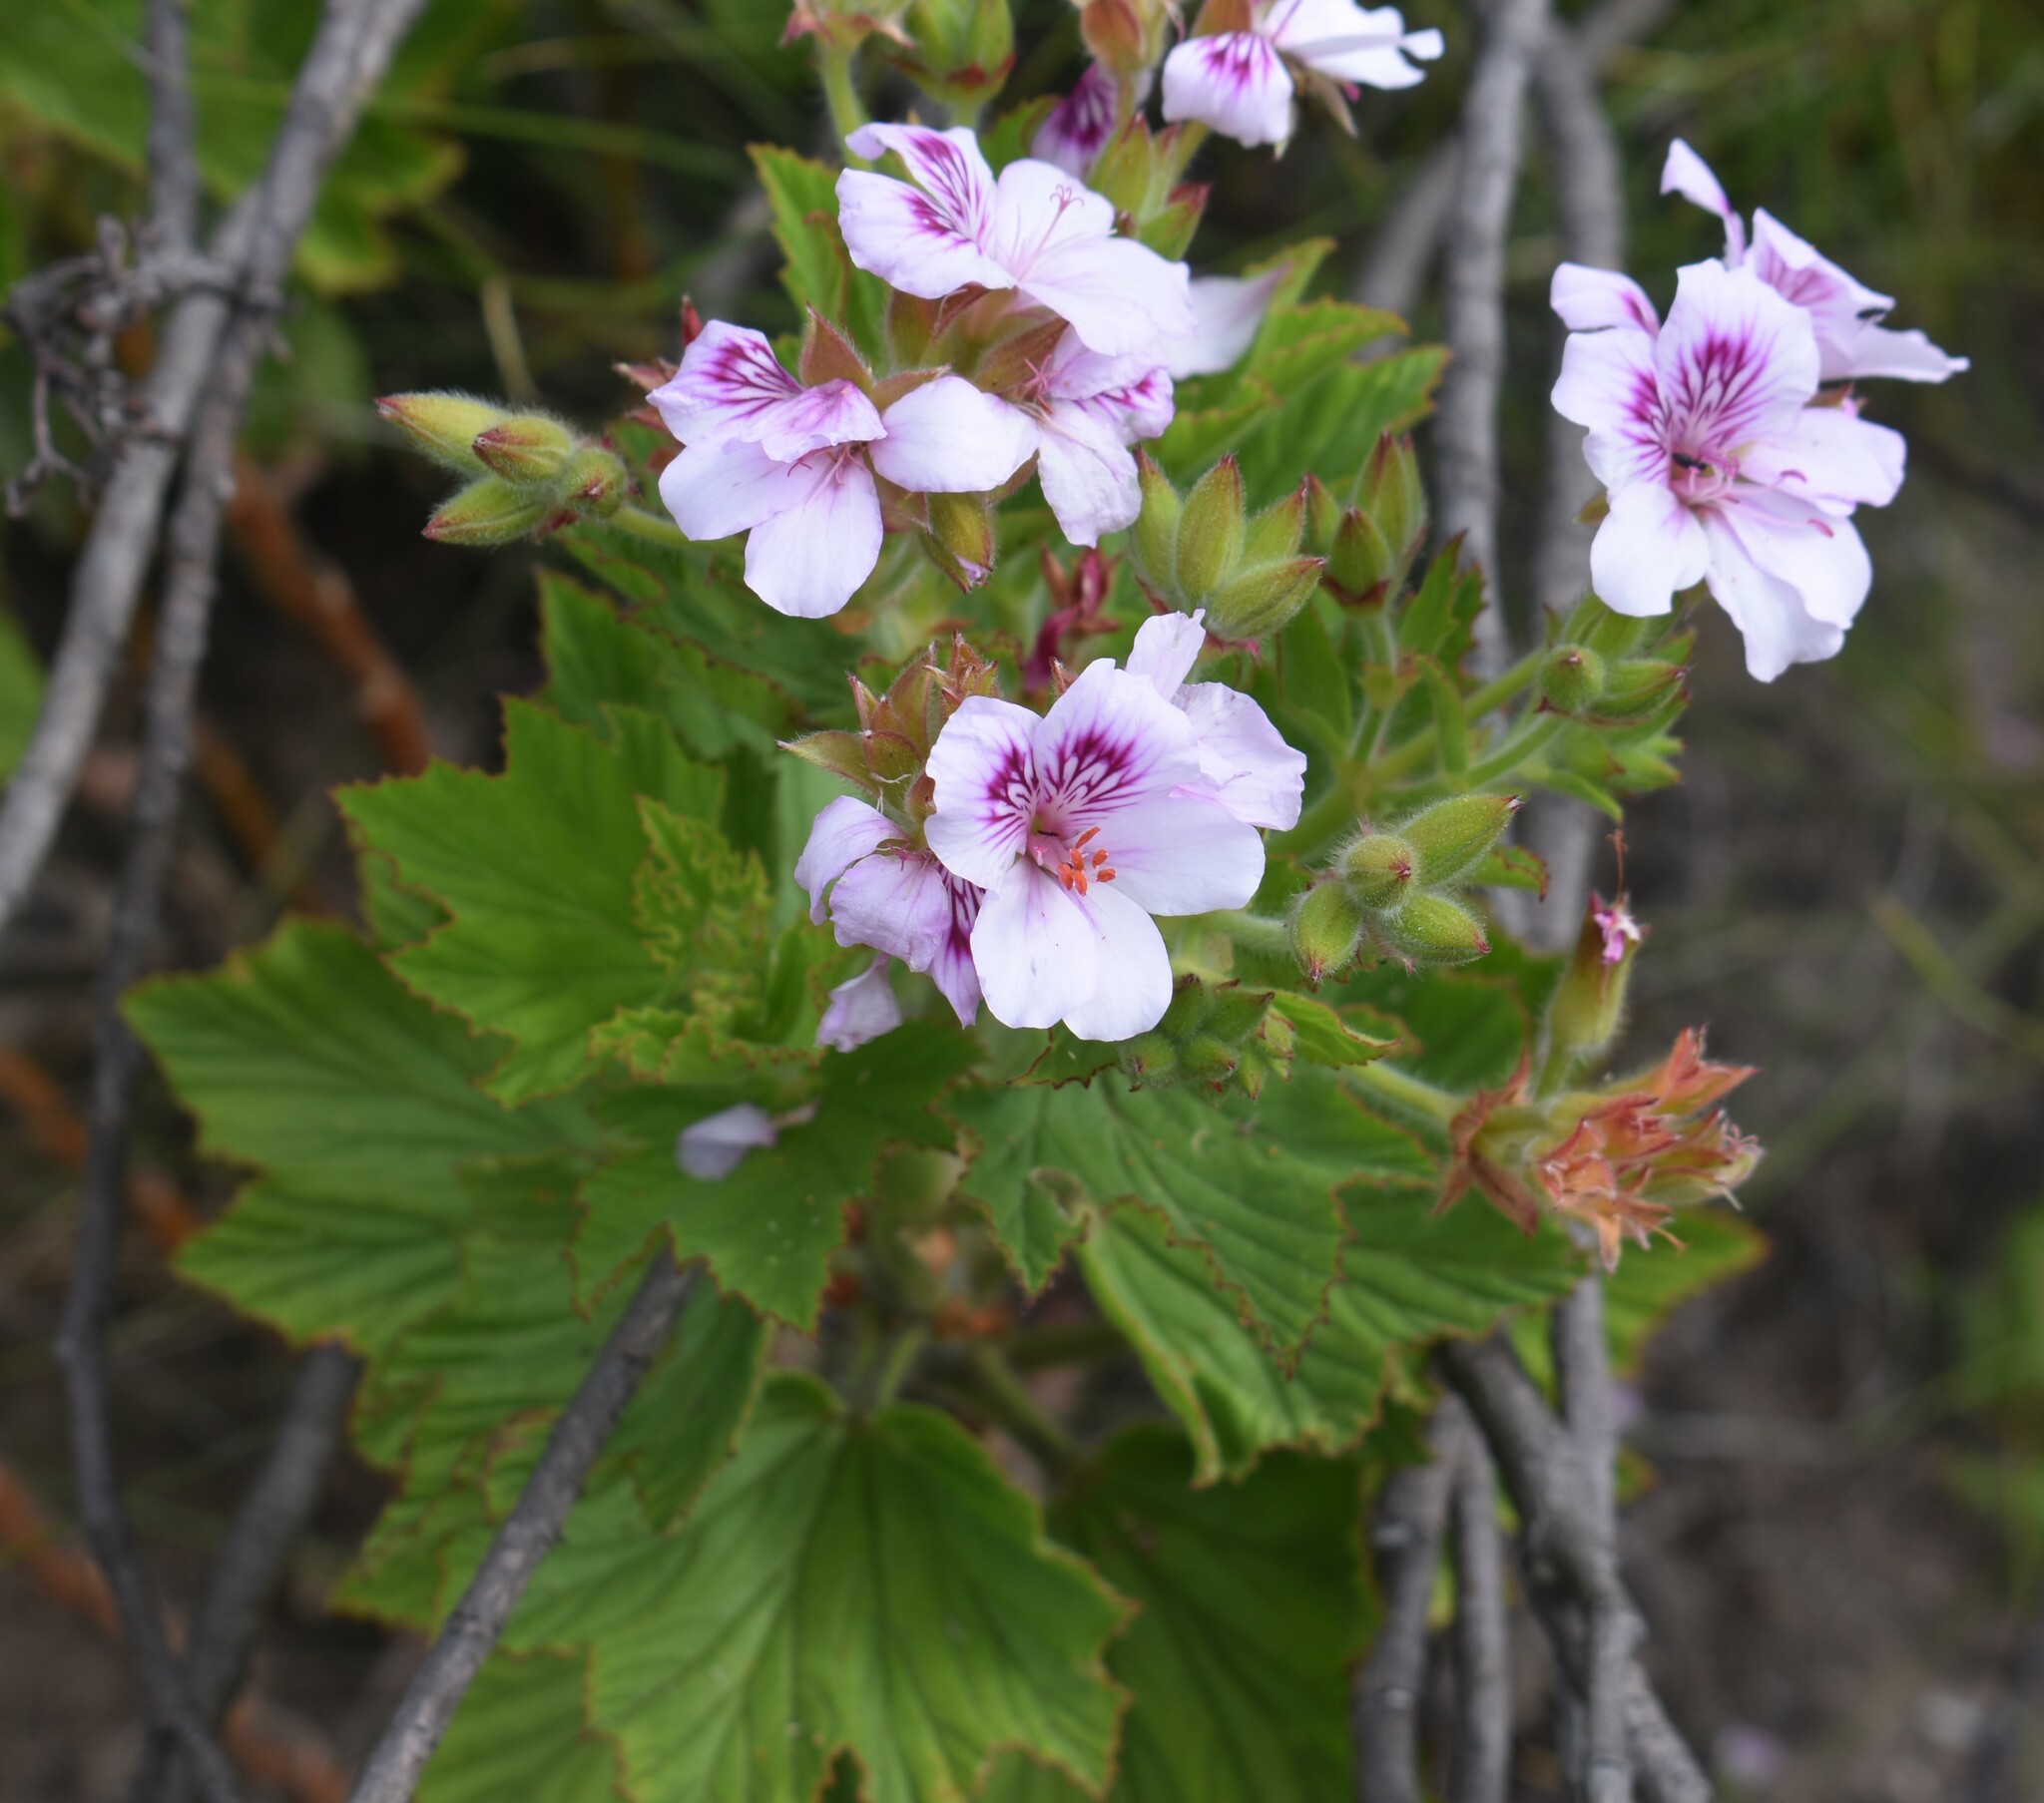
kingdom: Plantae
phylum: Tracheophyta
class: Magnoliopsida
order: Geraniales
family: Geraniaceae
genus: Pelargonium
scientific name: Pelargonium cucullatum
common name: Tree pelargonium
